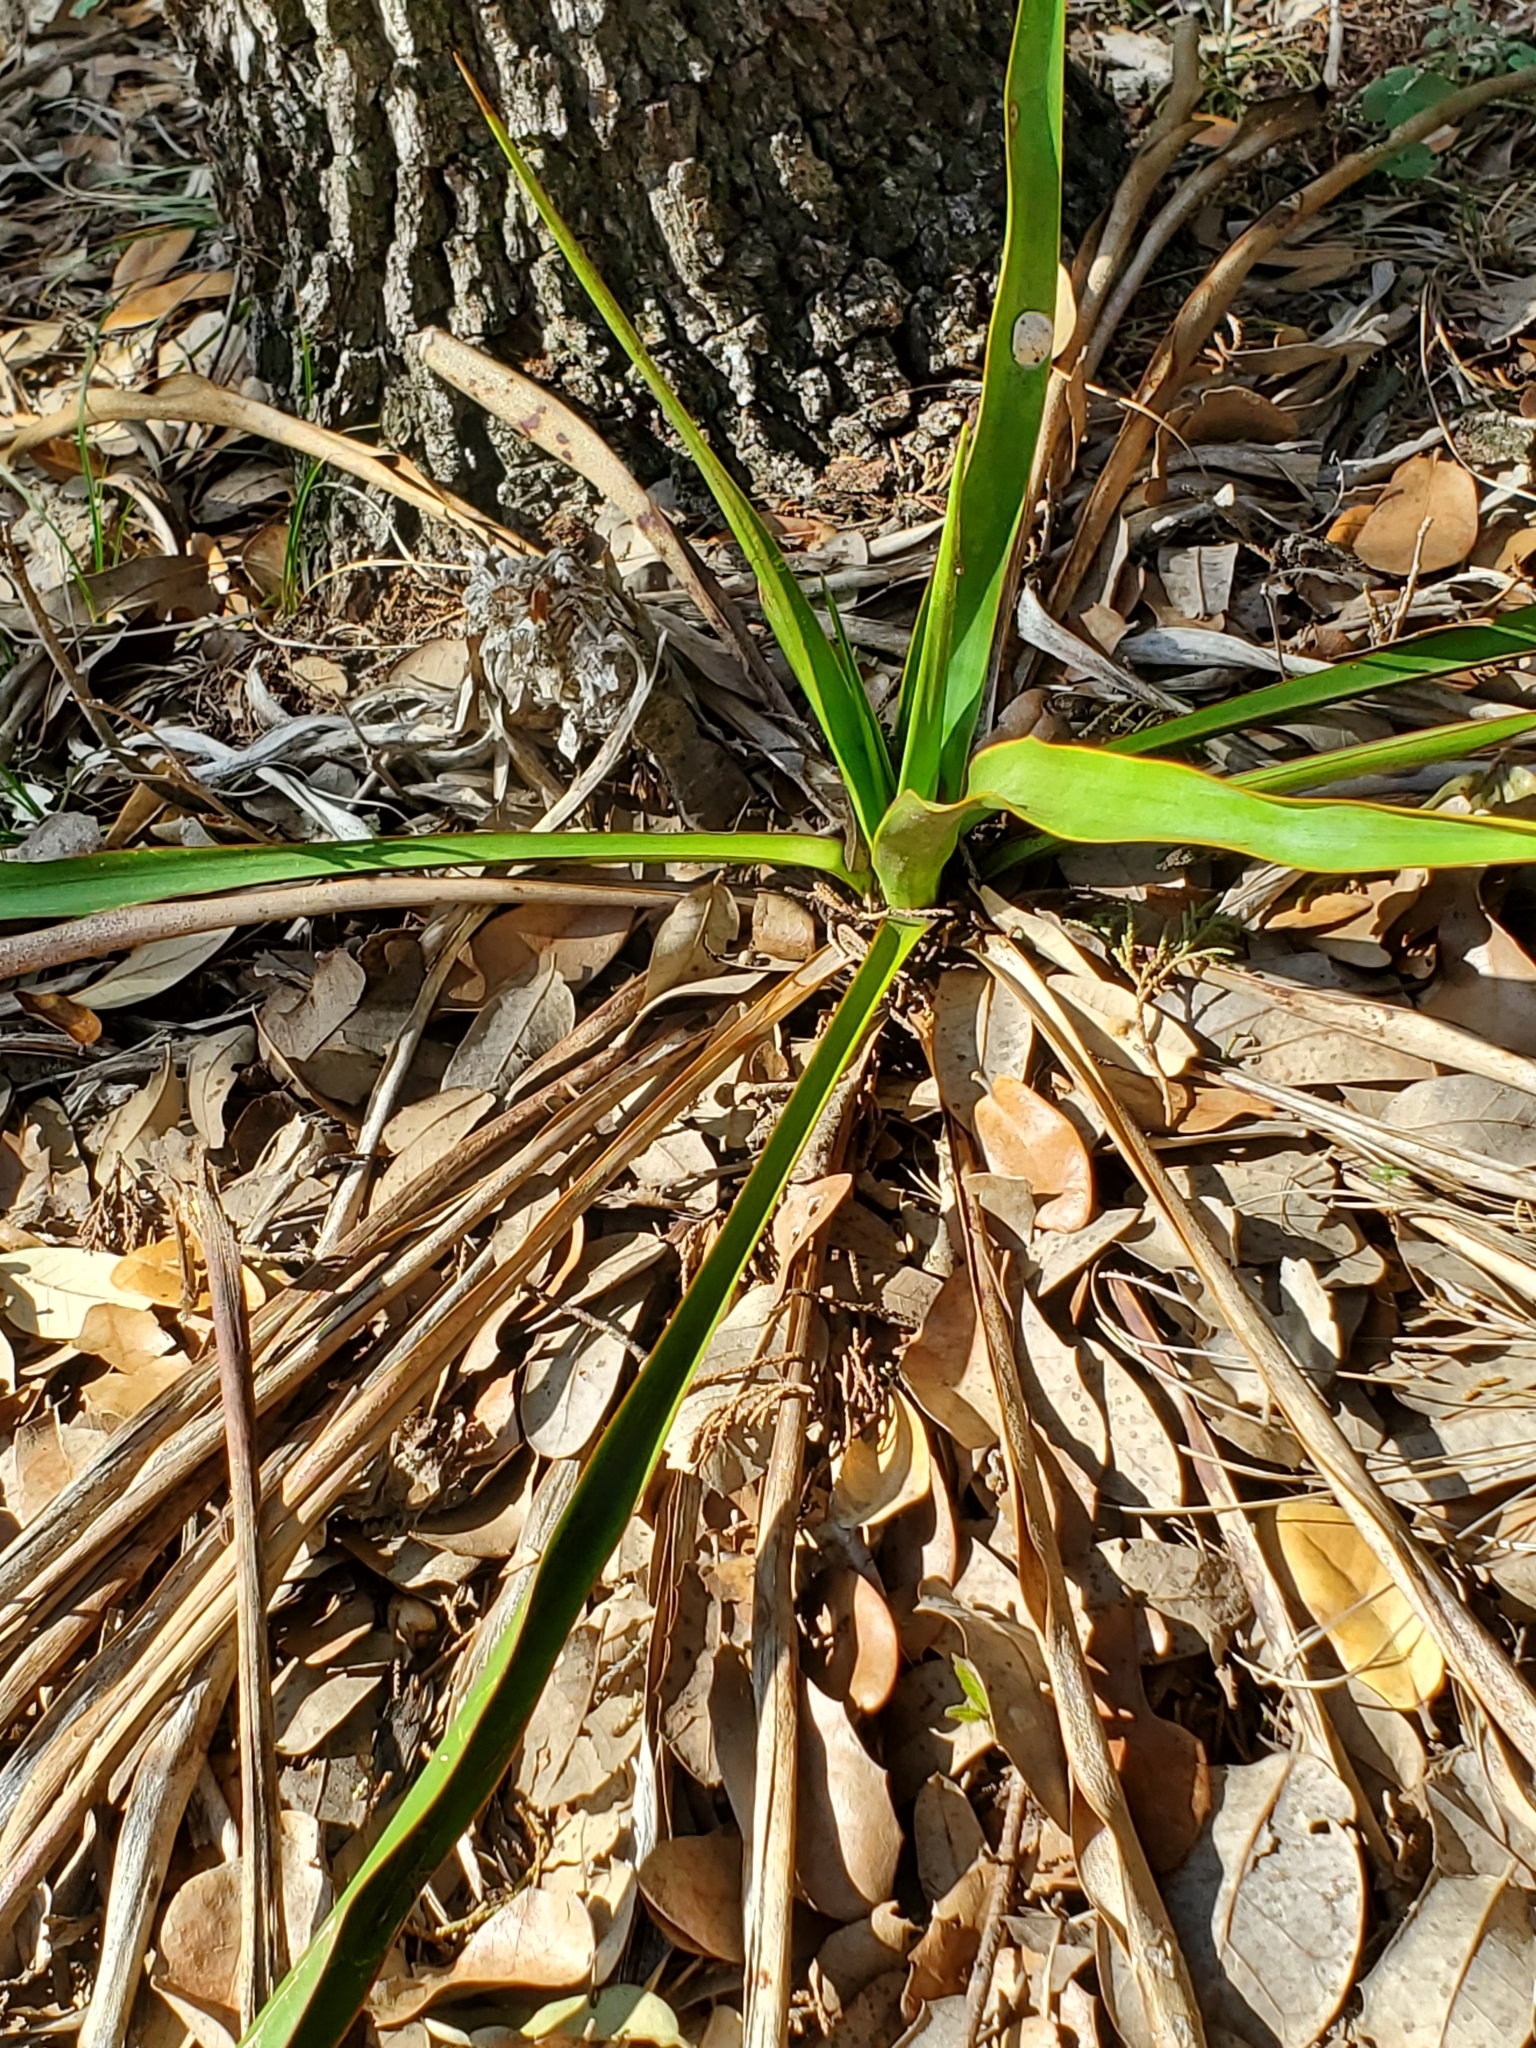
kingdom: Plantae
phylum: Tracheophyta
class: Liliopsida
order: Asparagales
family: Asparagaceae
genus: Yucca
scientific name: Yucca rupicola
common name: Twisted-leaf spanish-dagger
